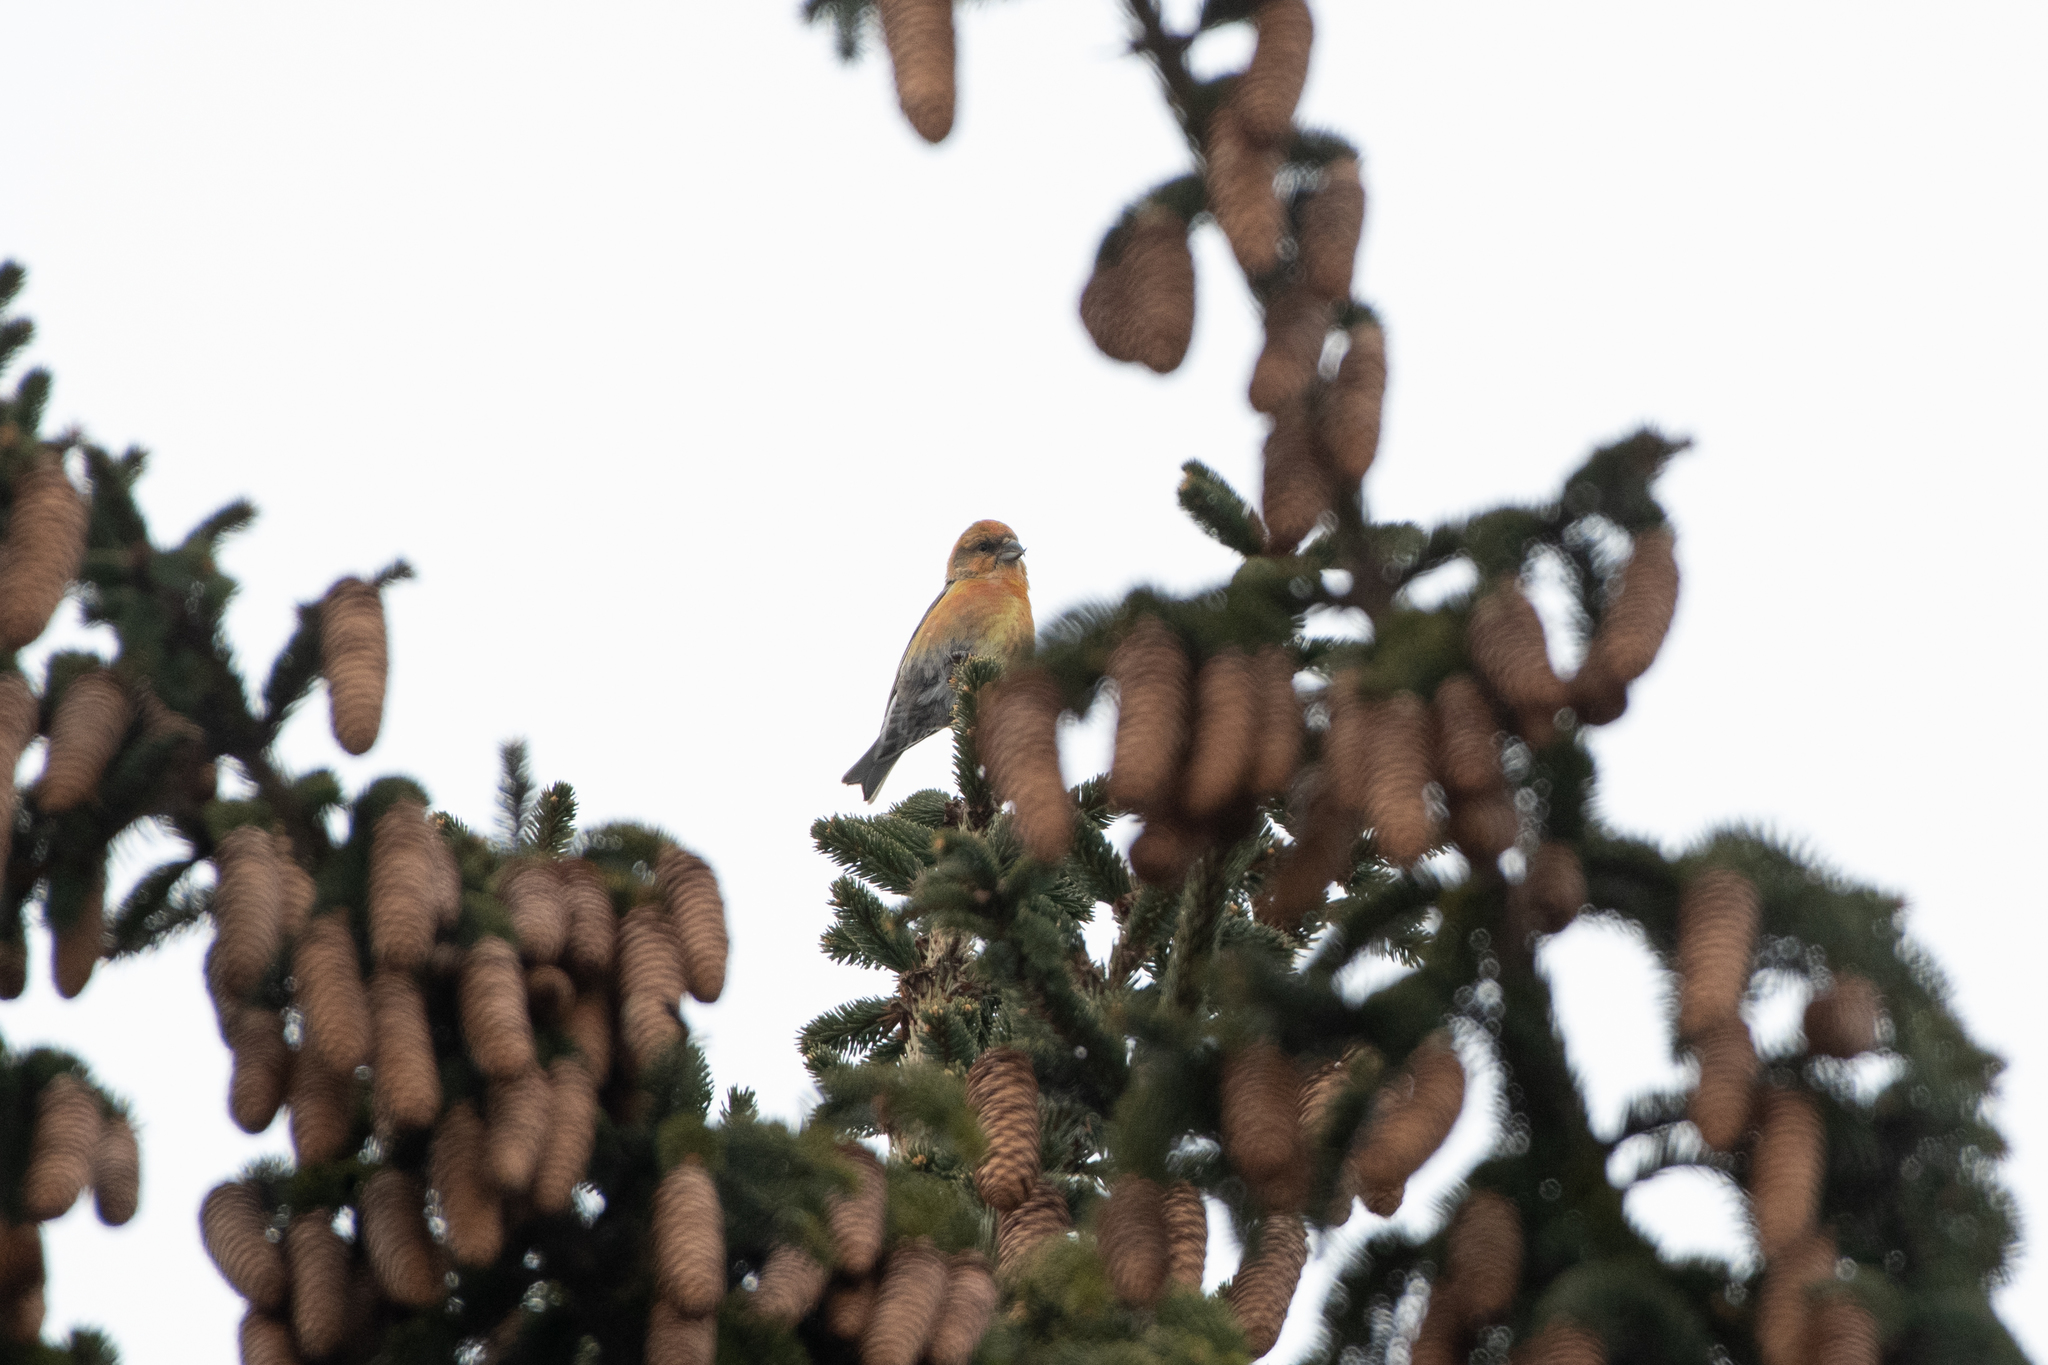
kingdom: Animalia
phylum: Chordata
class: Aves
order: Passeriformes
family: Fringillidae
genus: Loxia
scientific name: Loxia curvirostra
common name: Red crossbill
